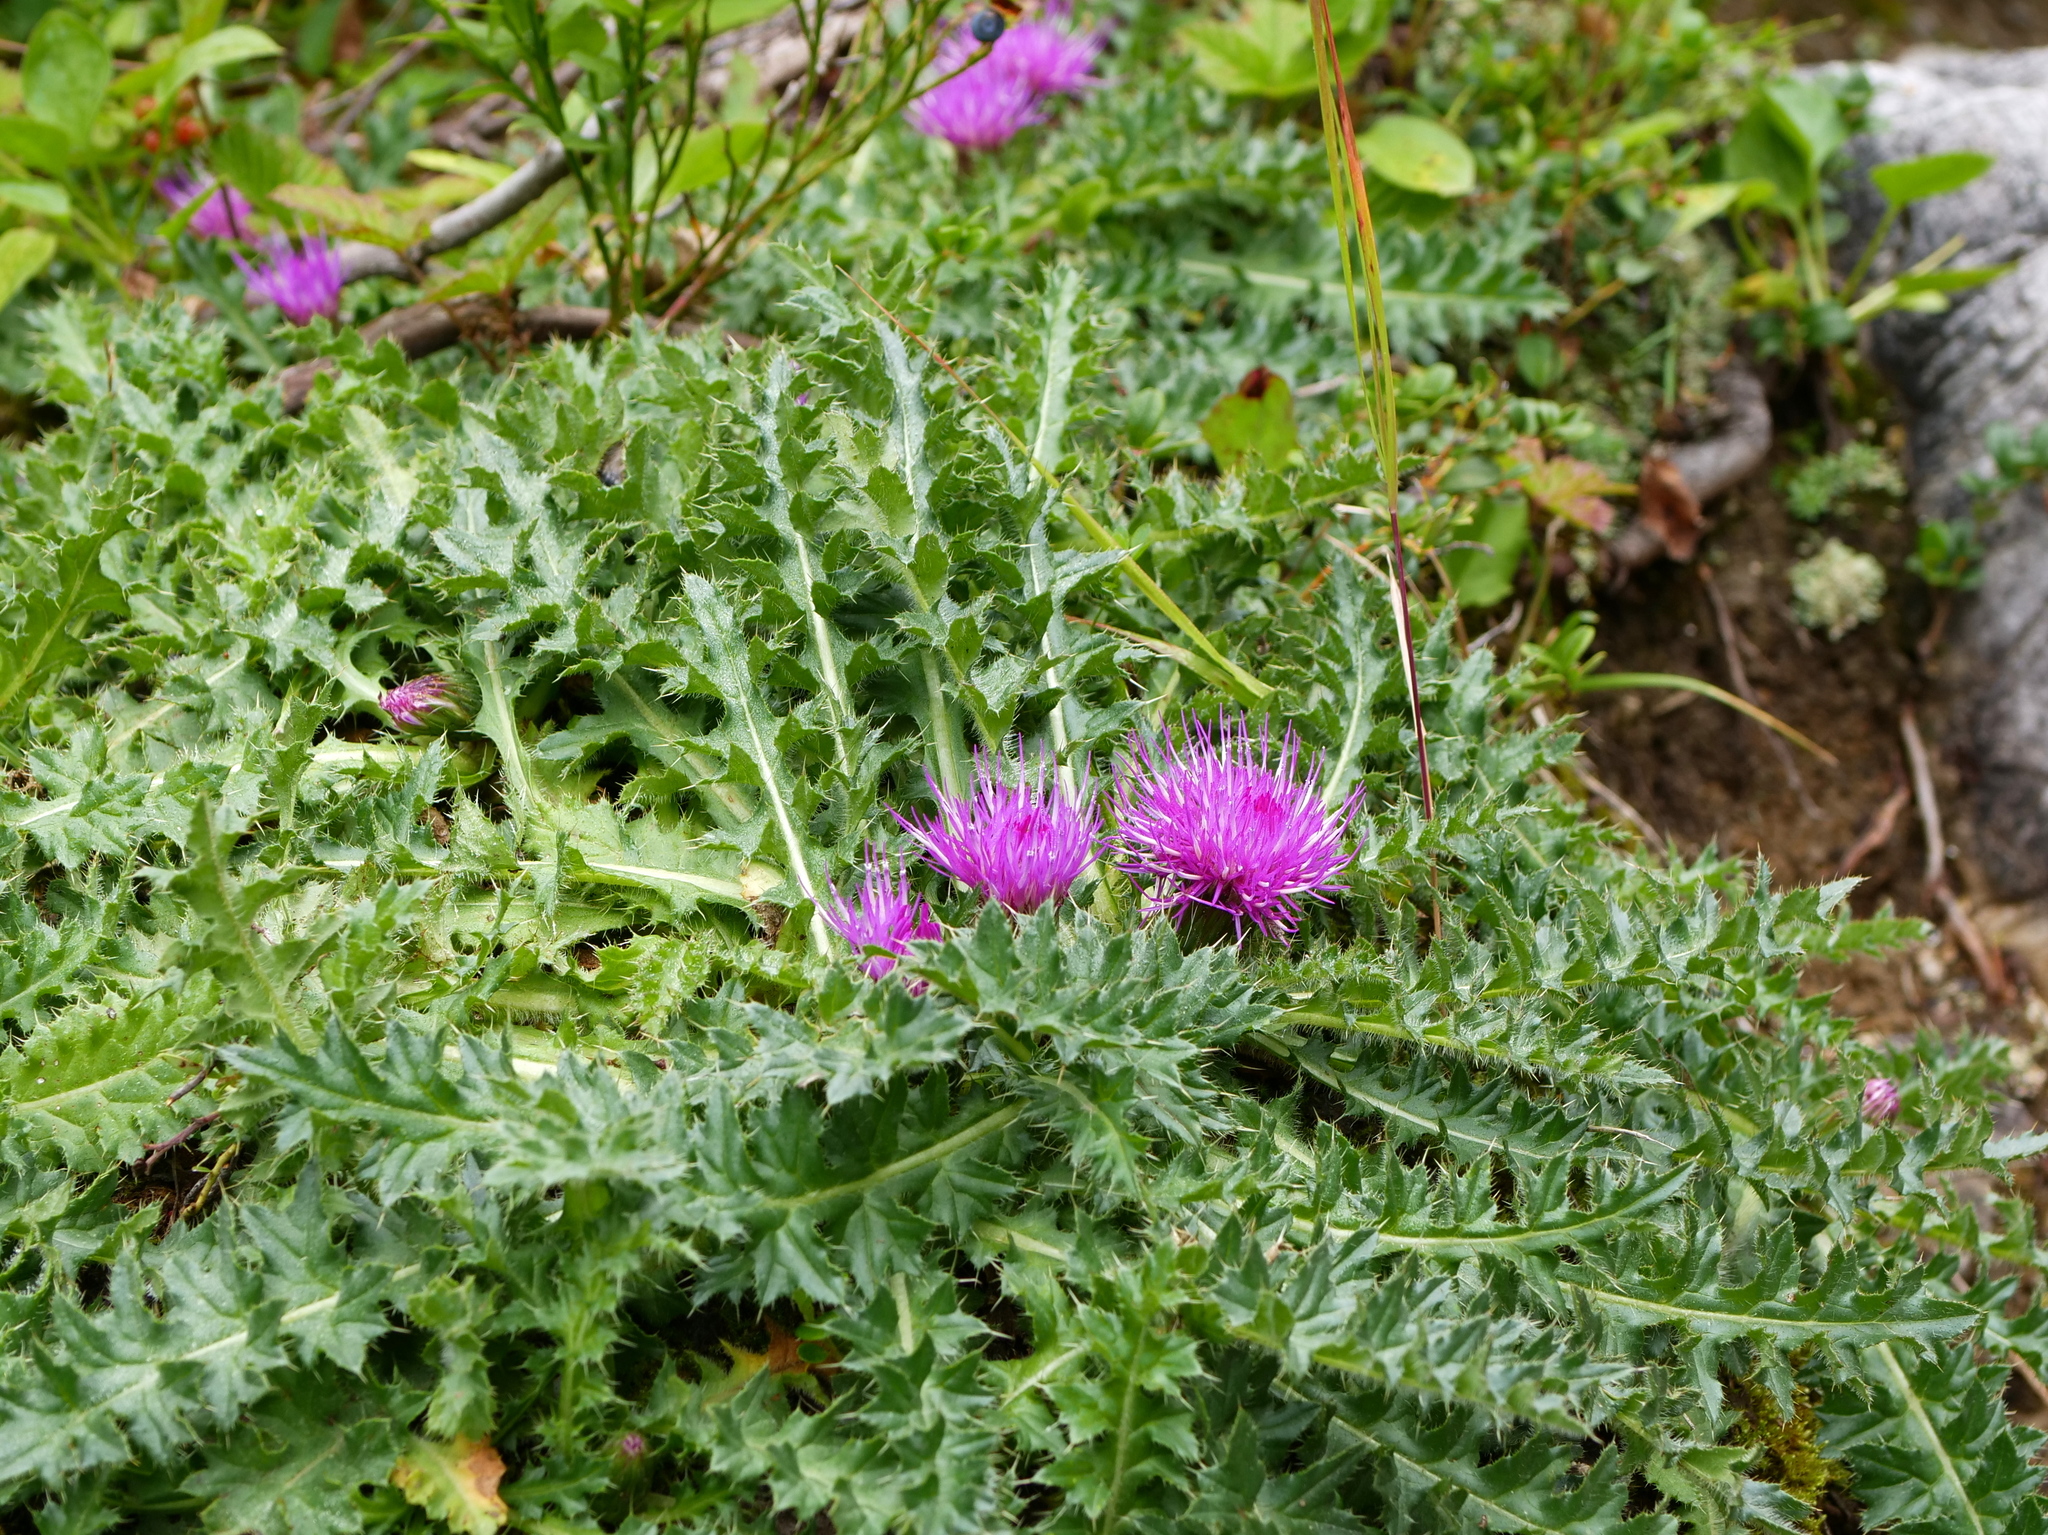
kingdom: Plantae
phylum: Tracheophyta
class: Magnoliopsida
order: Asterales
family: Asteraceae
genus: Cirsium
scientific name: Cirsium acaulon
